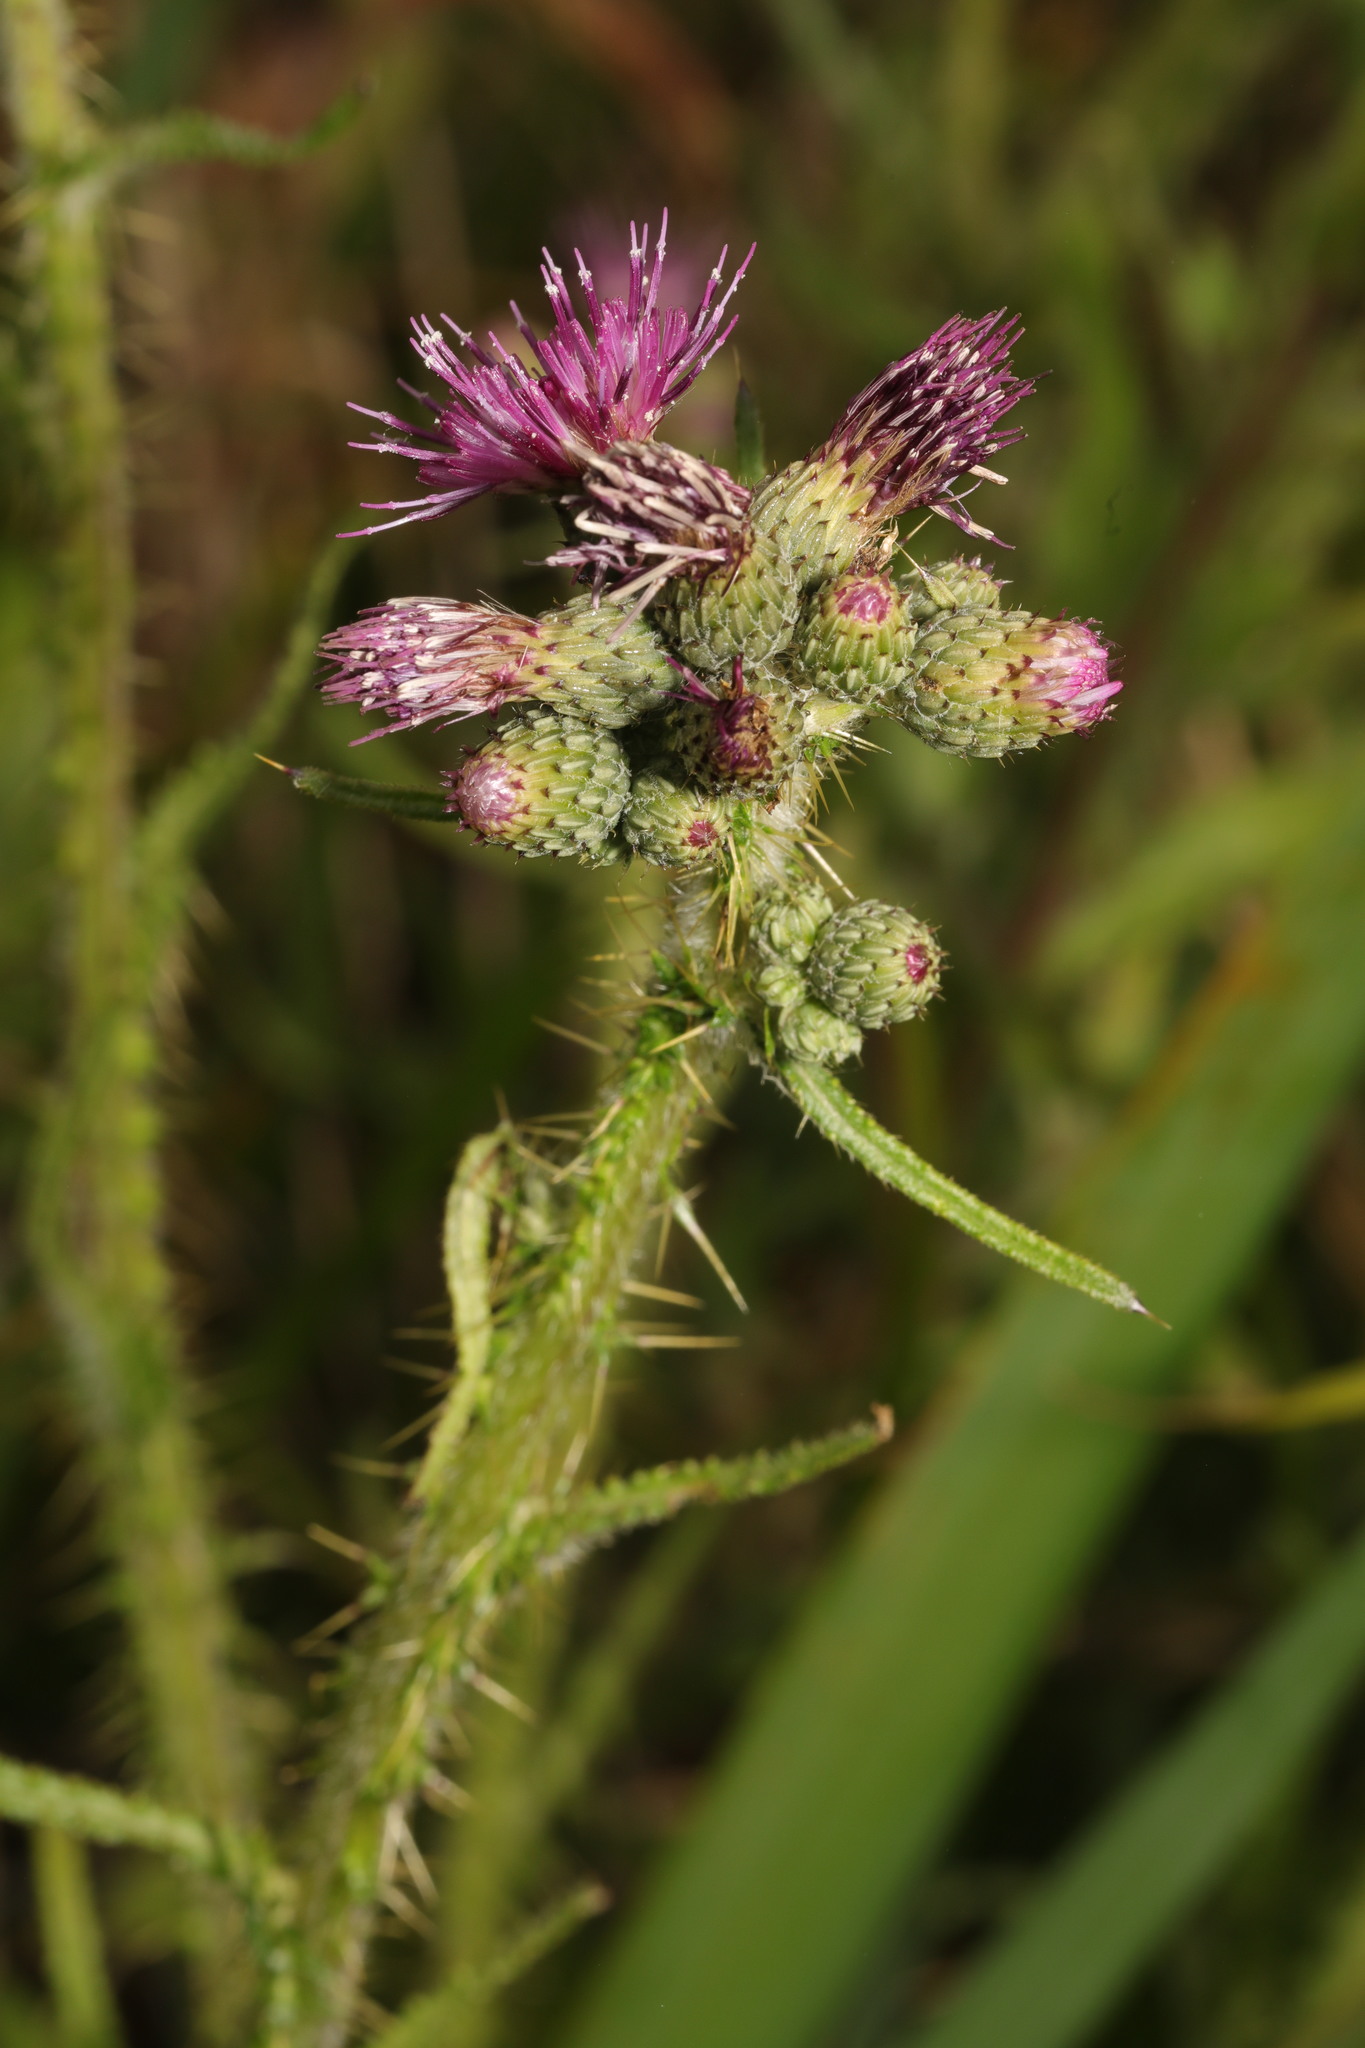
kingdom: Plantae
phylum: Tracheophyta
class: Magnoliopsida
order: Asterales
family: Asteraceae
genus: Cirsium
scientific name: Cirsium palustre
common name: Marsh thistle
